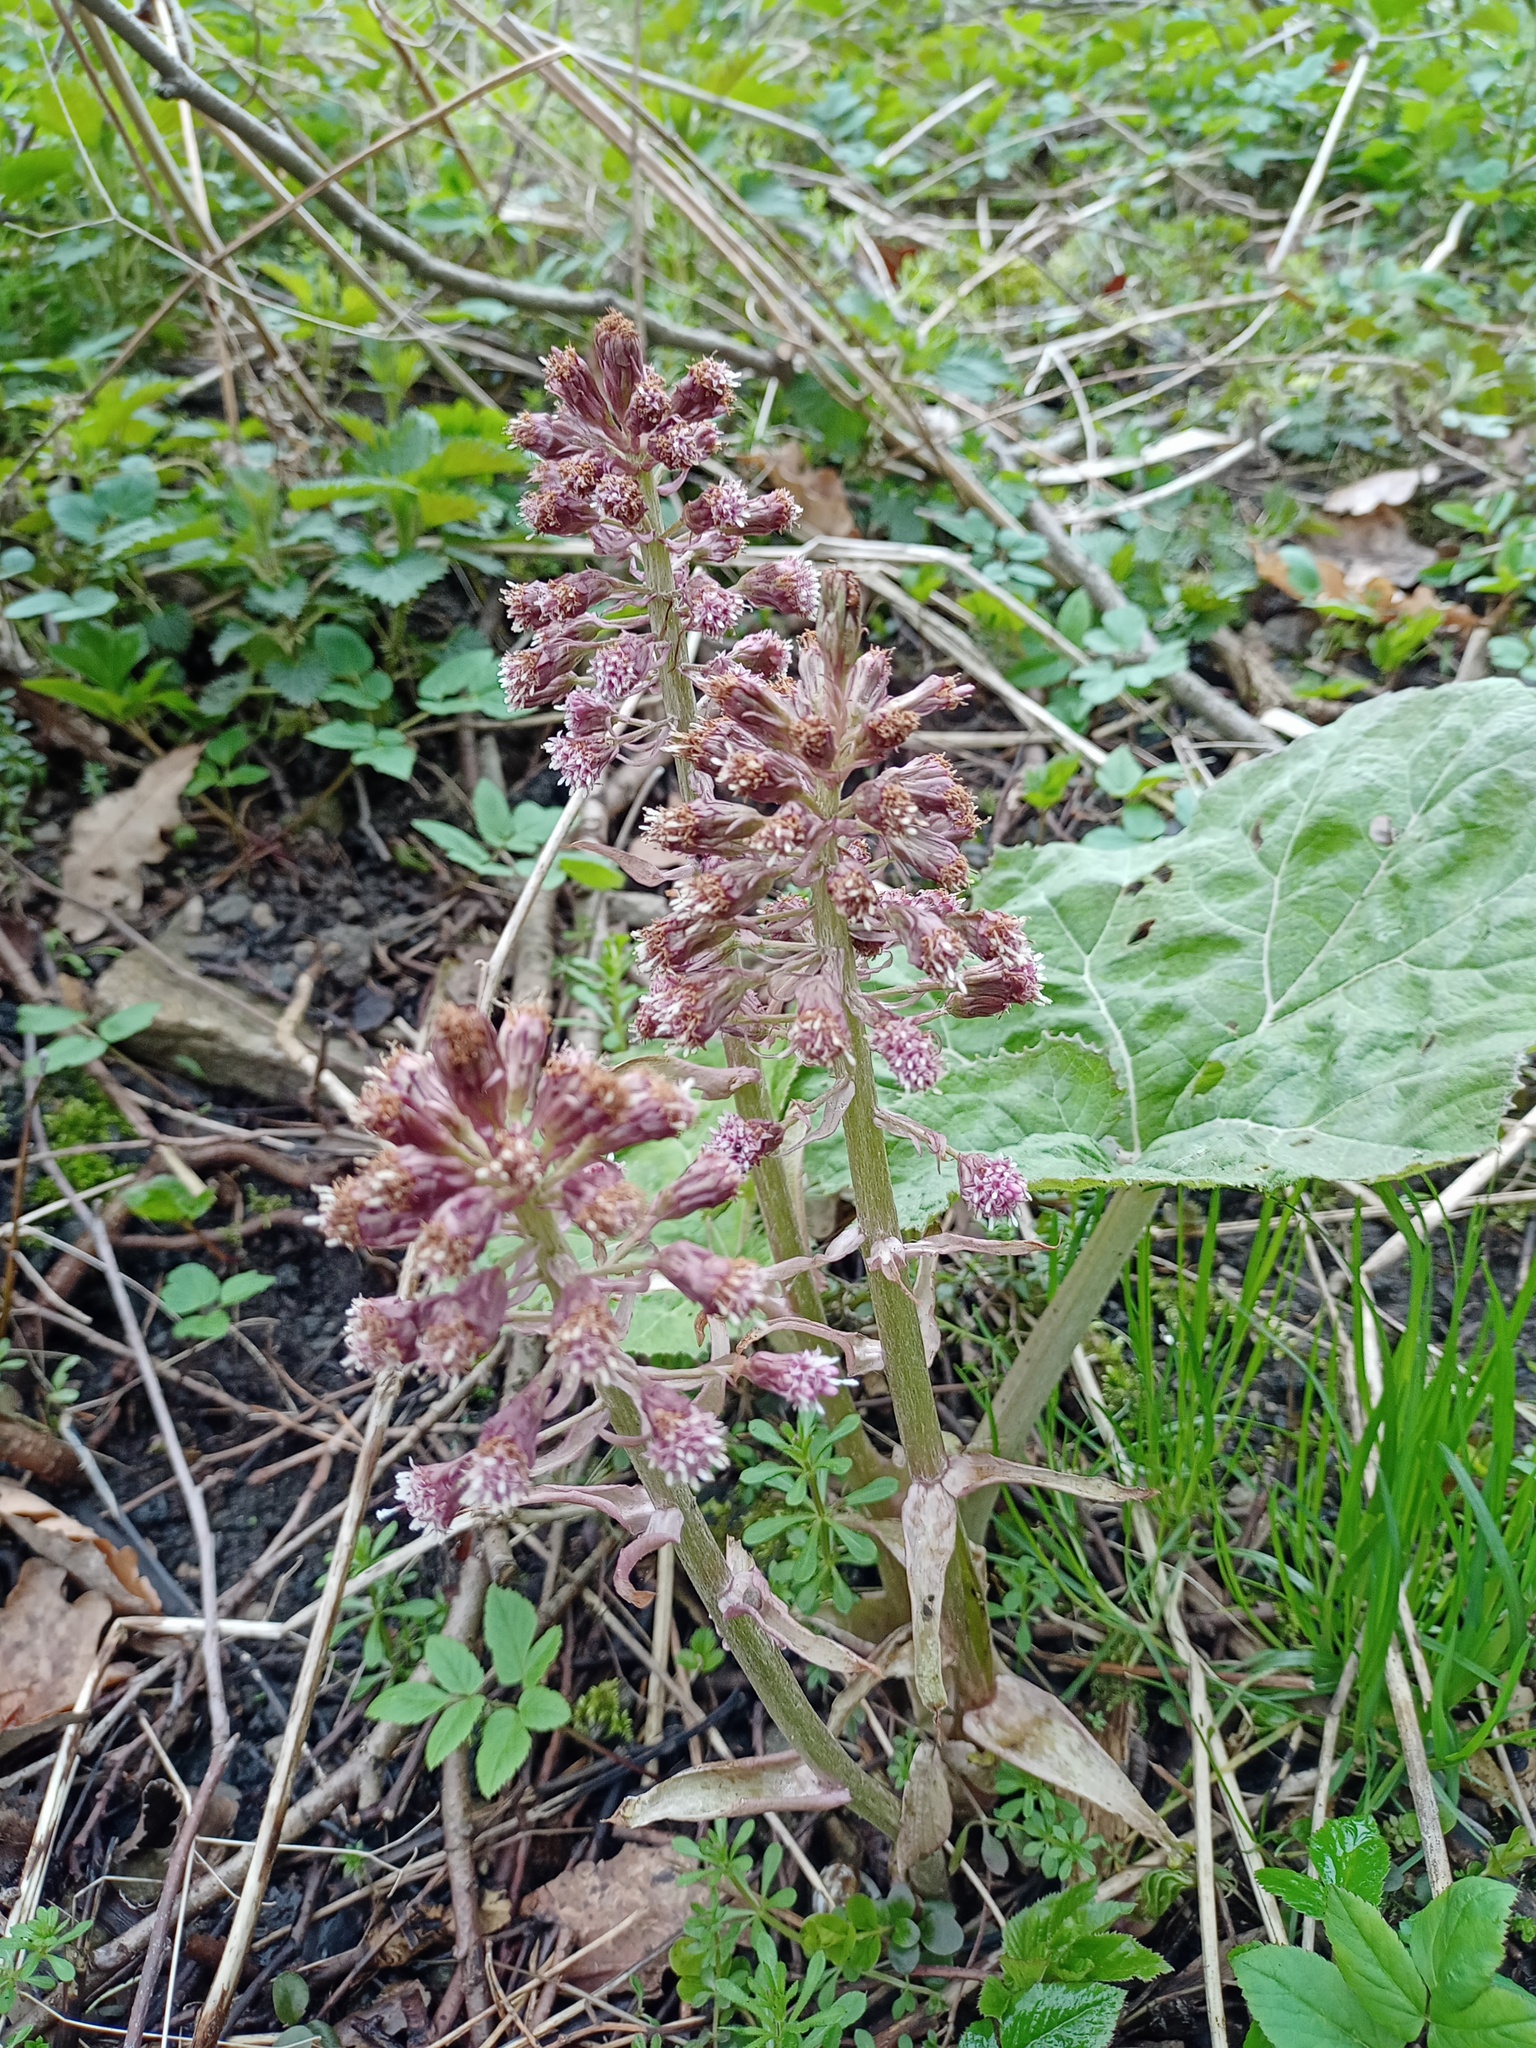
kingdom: Plantae
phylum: Tracheophyta
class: Magnoliopsida
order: Asterales
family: Asteraceae
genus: Petasites
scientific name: Petasites hybridus
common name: Butterbur
